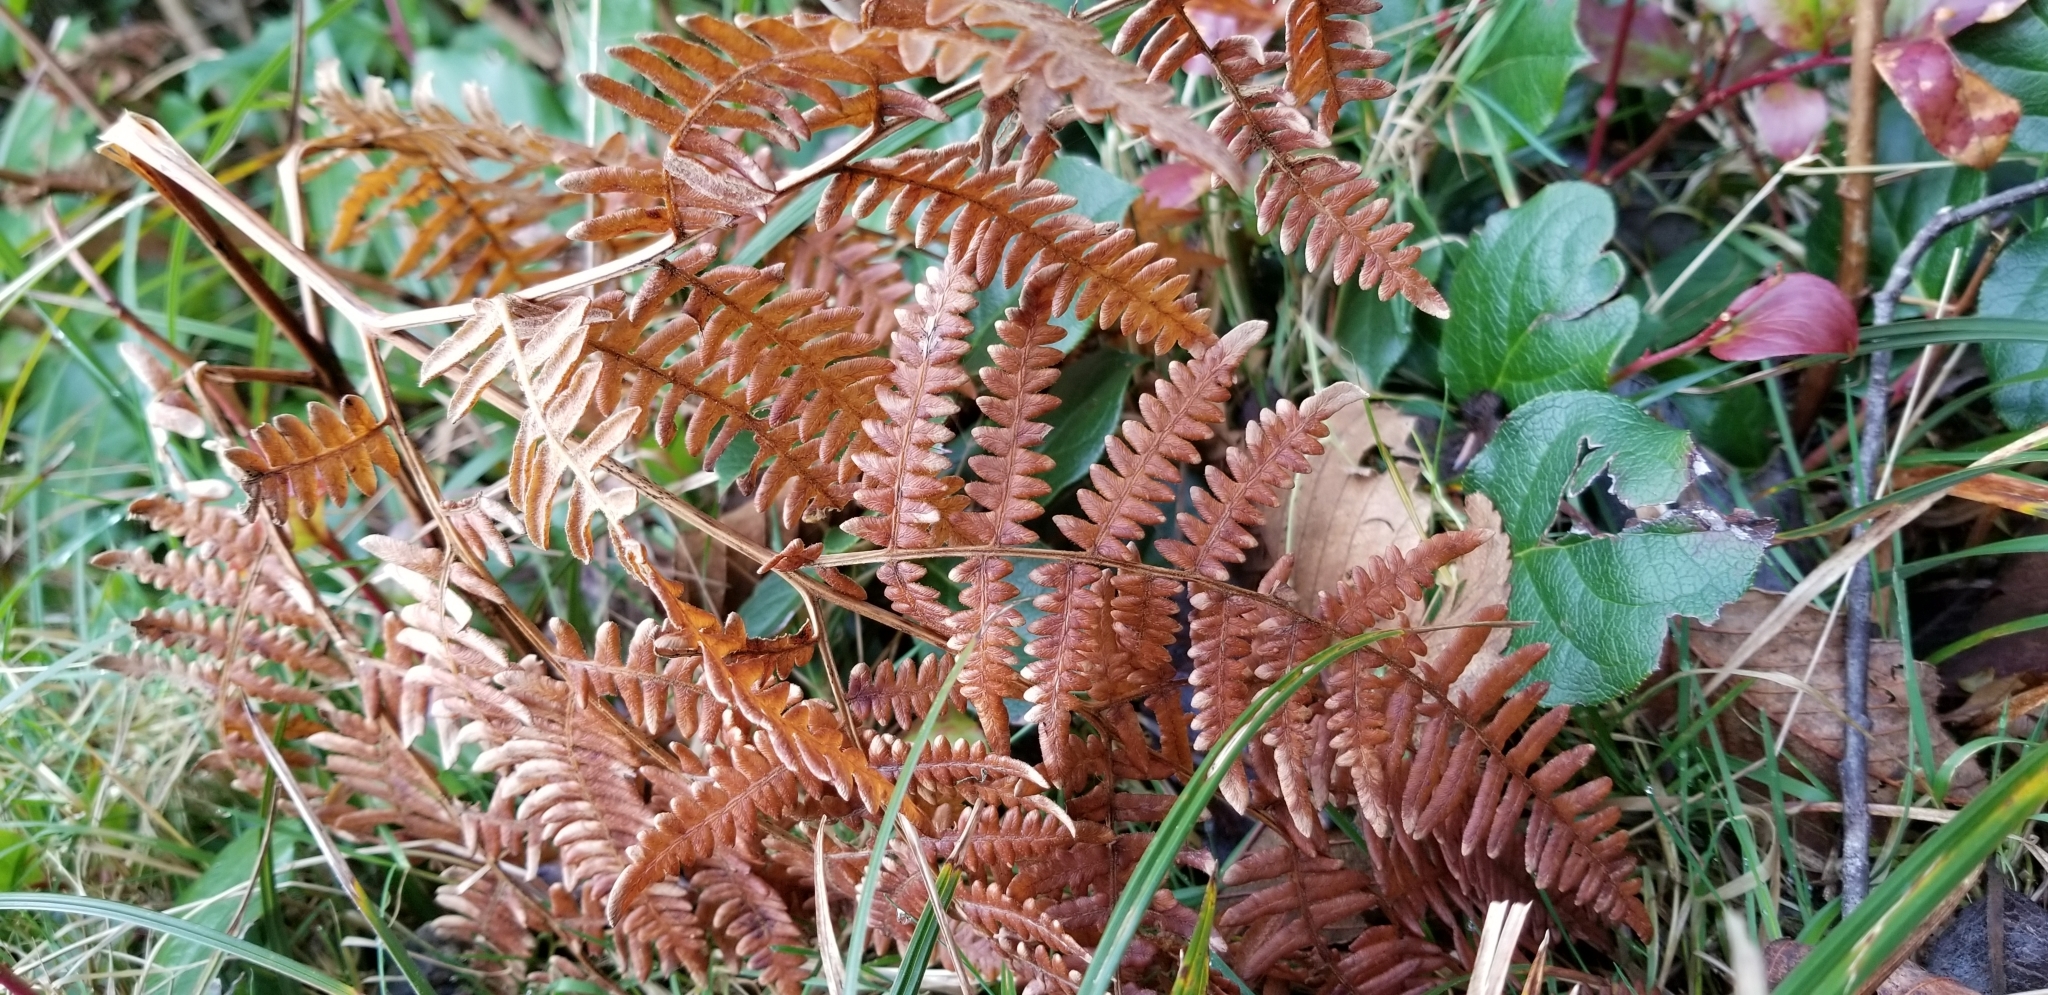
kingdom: Plantae
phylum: Tracheophyta
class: Polypodiopsida
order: Polypodiales
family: Dennstaedtiaceae
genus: Pteridium
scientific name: Pteridium aquilinum
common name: Bracken
